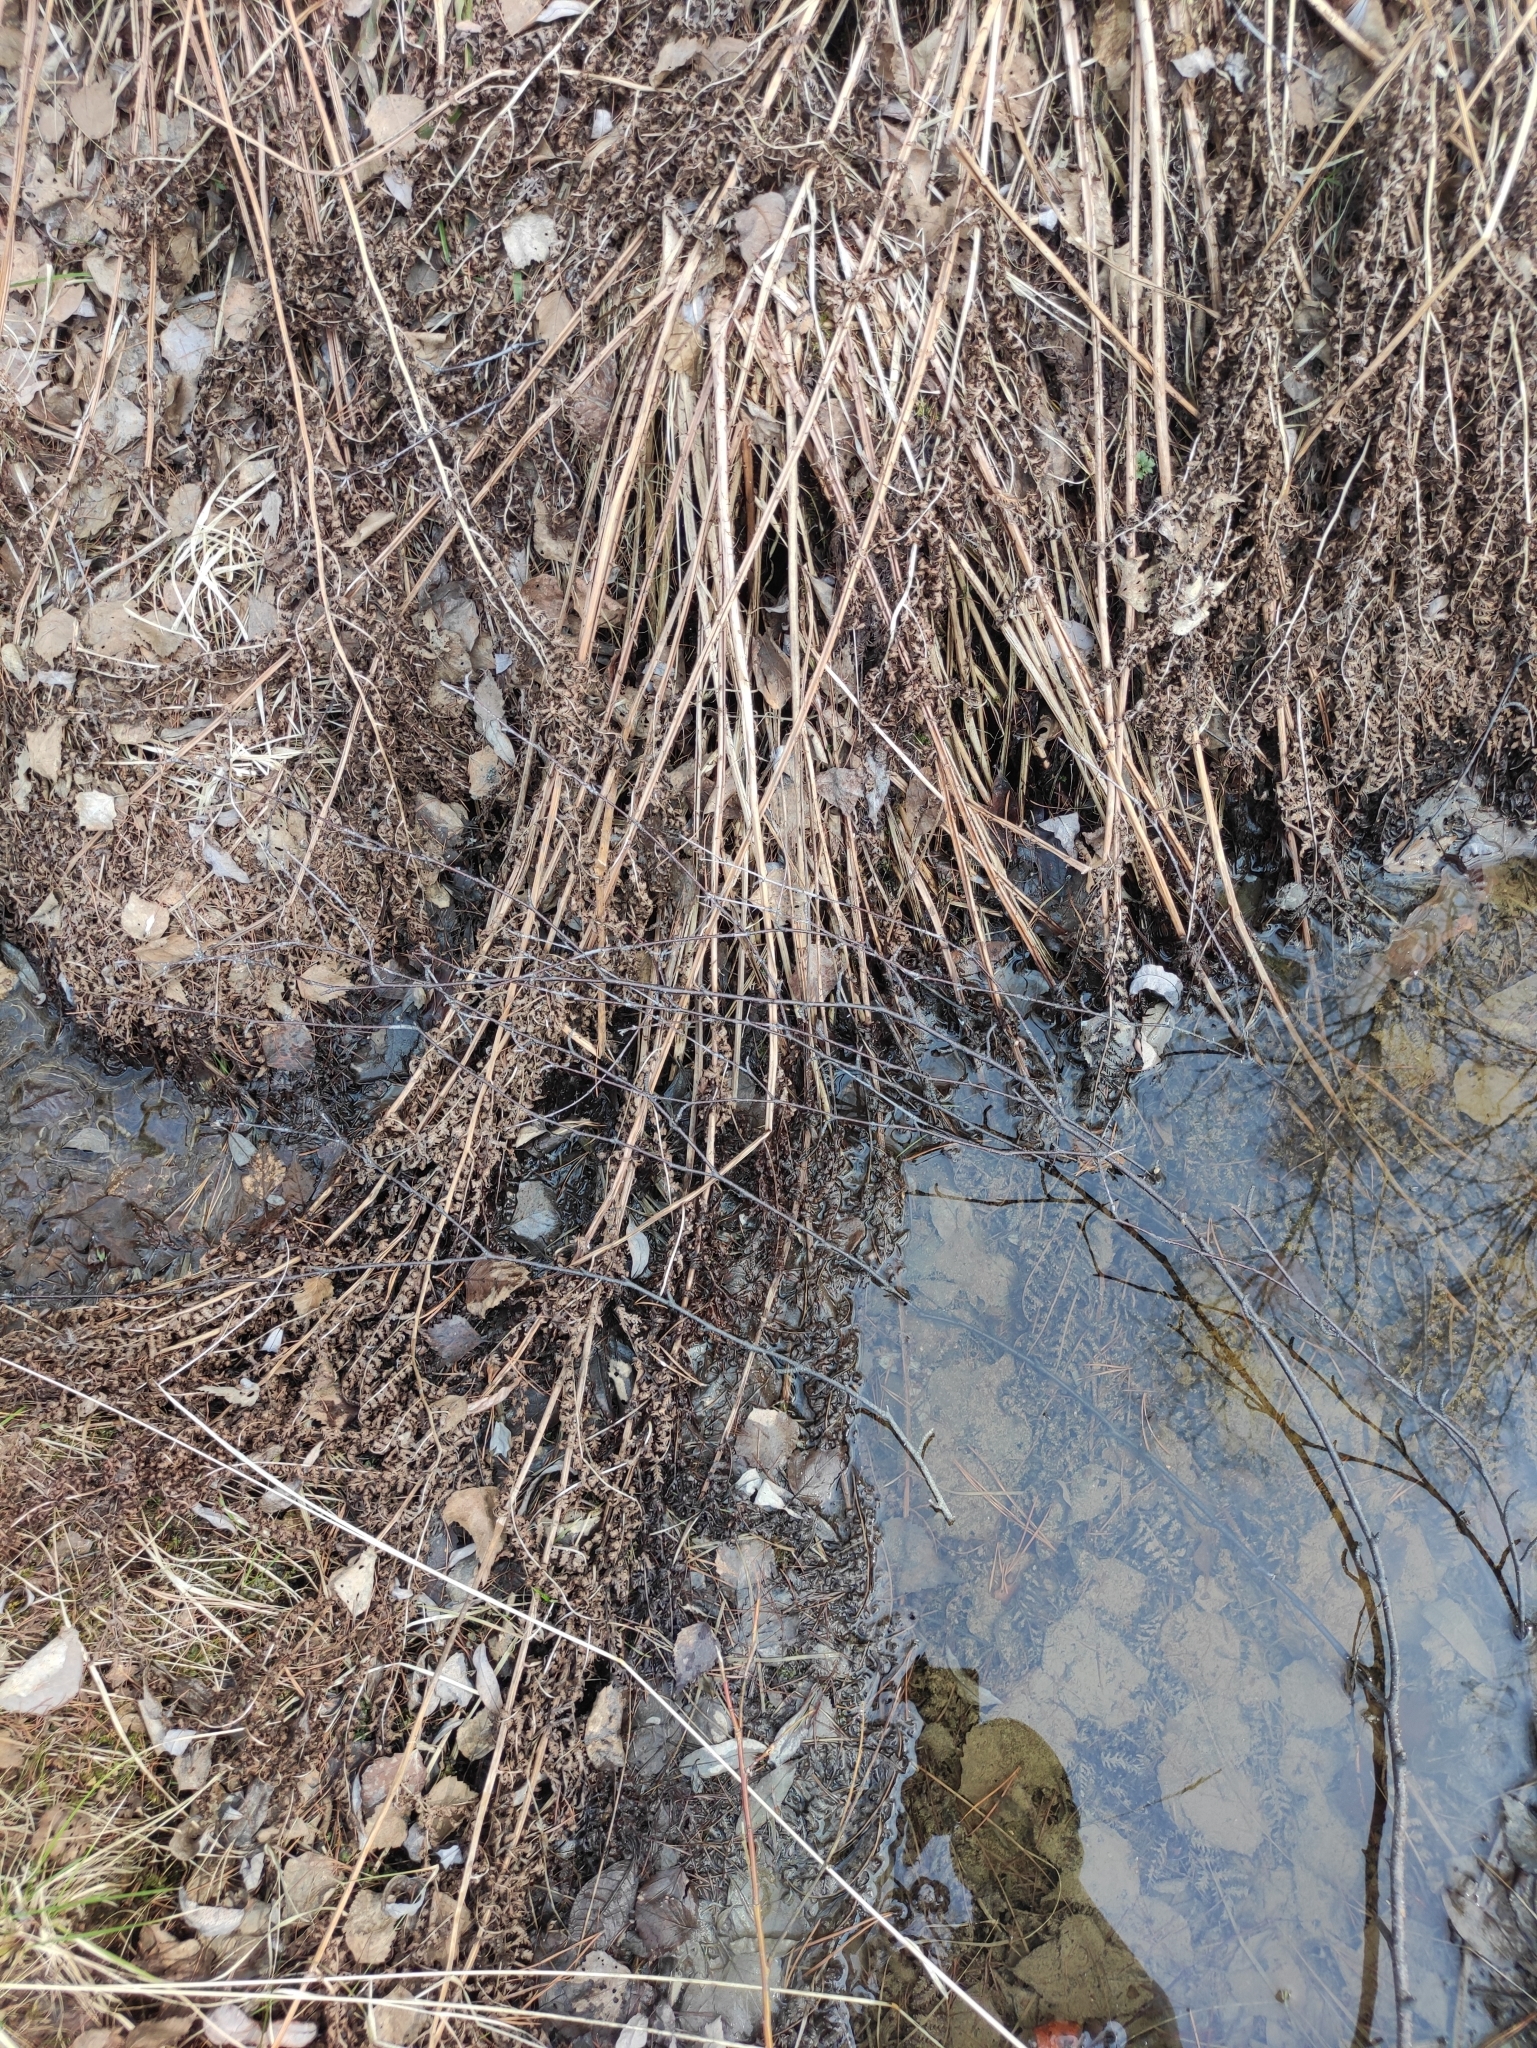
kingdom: Plantae
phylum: Tracheophyta
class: Polypodiopsida
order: Polypodiales
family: Athyriaceae
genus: Athyrium
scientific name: Athyrium filix-femina
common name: Lady fern
